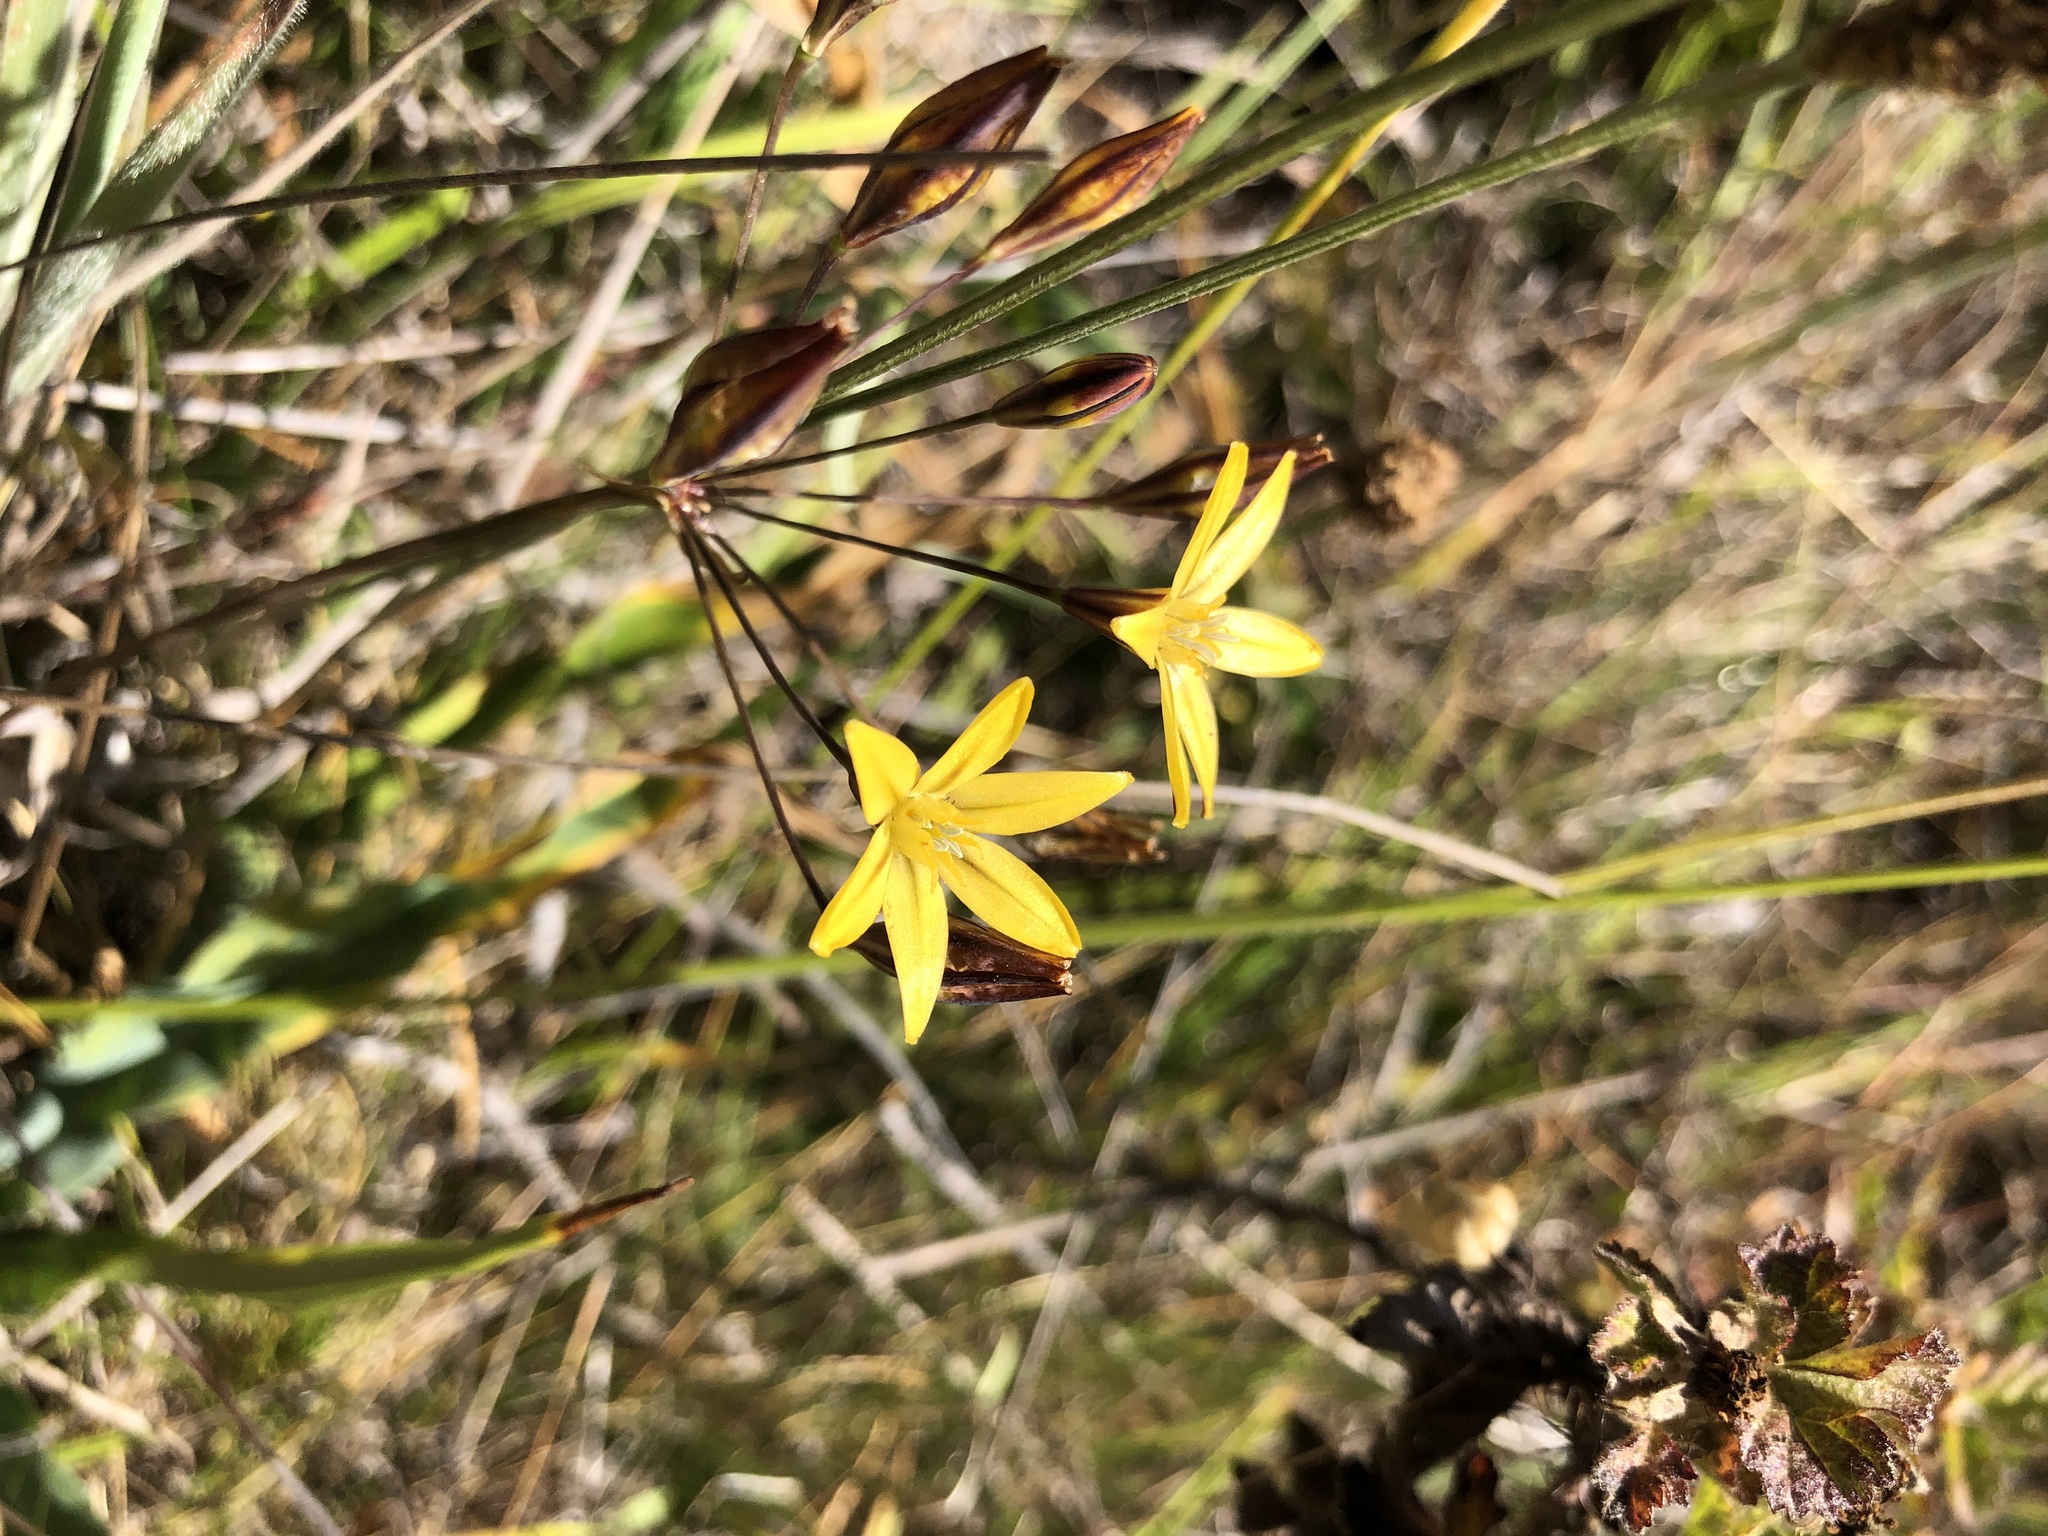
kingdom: Plantae
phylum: Tracheophyta
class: Liliopsida
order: Asparagales
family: Asparagaceae
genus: Triteleia
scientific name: Triteleia ixioides
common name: Yellow-brodiaea
